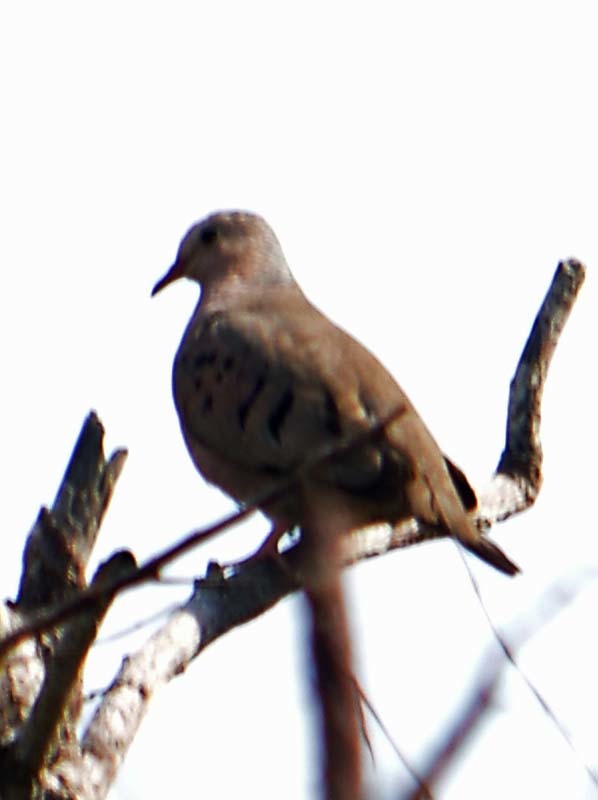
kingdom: Animalia
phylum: Chordata
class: Aves
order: Columbiformes
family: Columbidae
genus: Columbina
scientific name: Columbina talpacoti
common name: Ruddy ground dove
